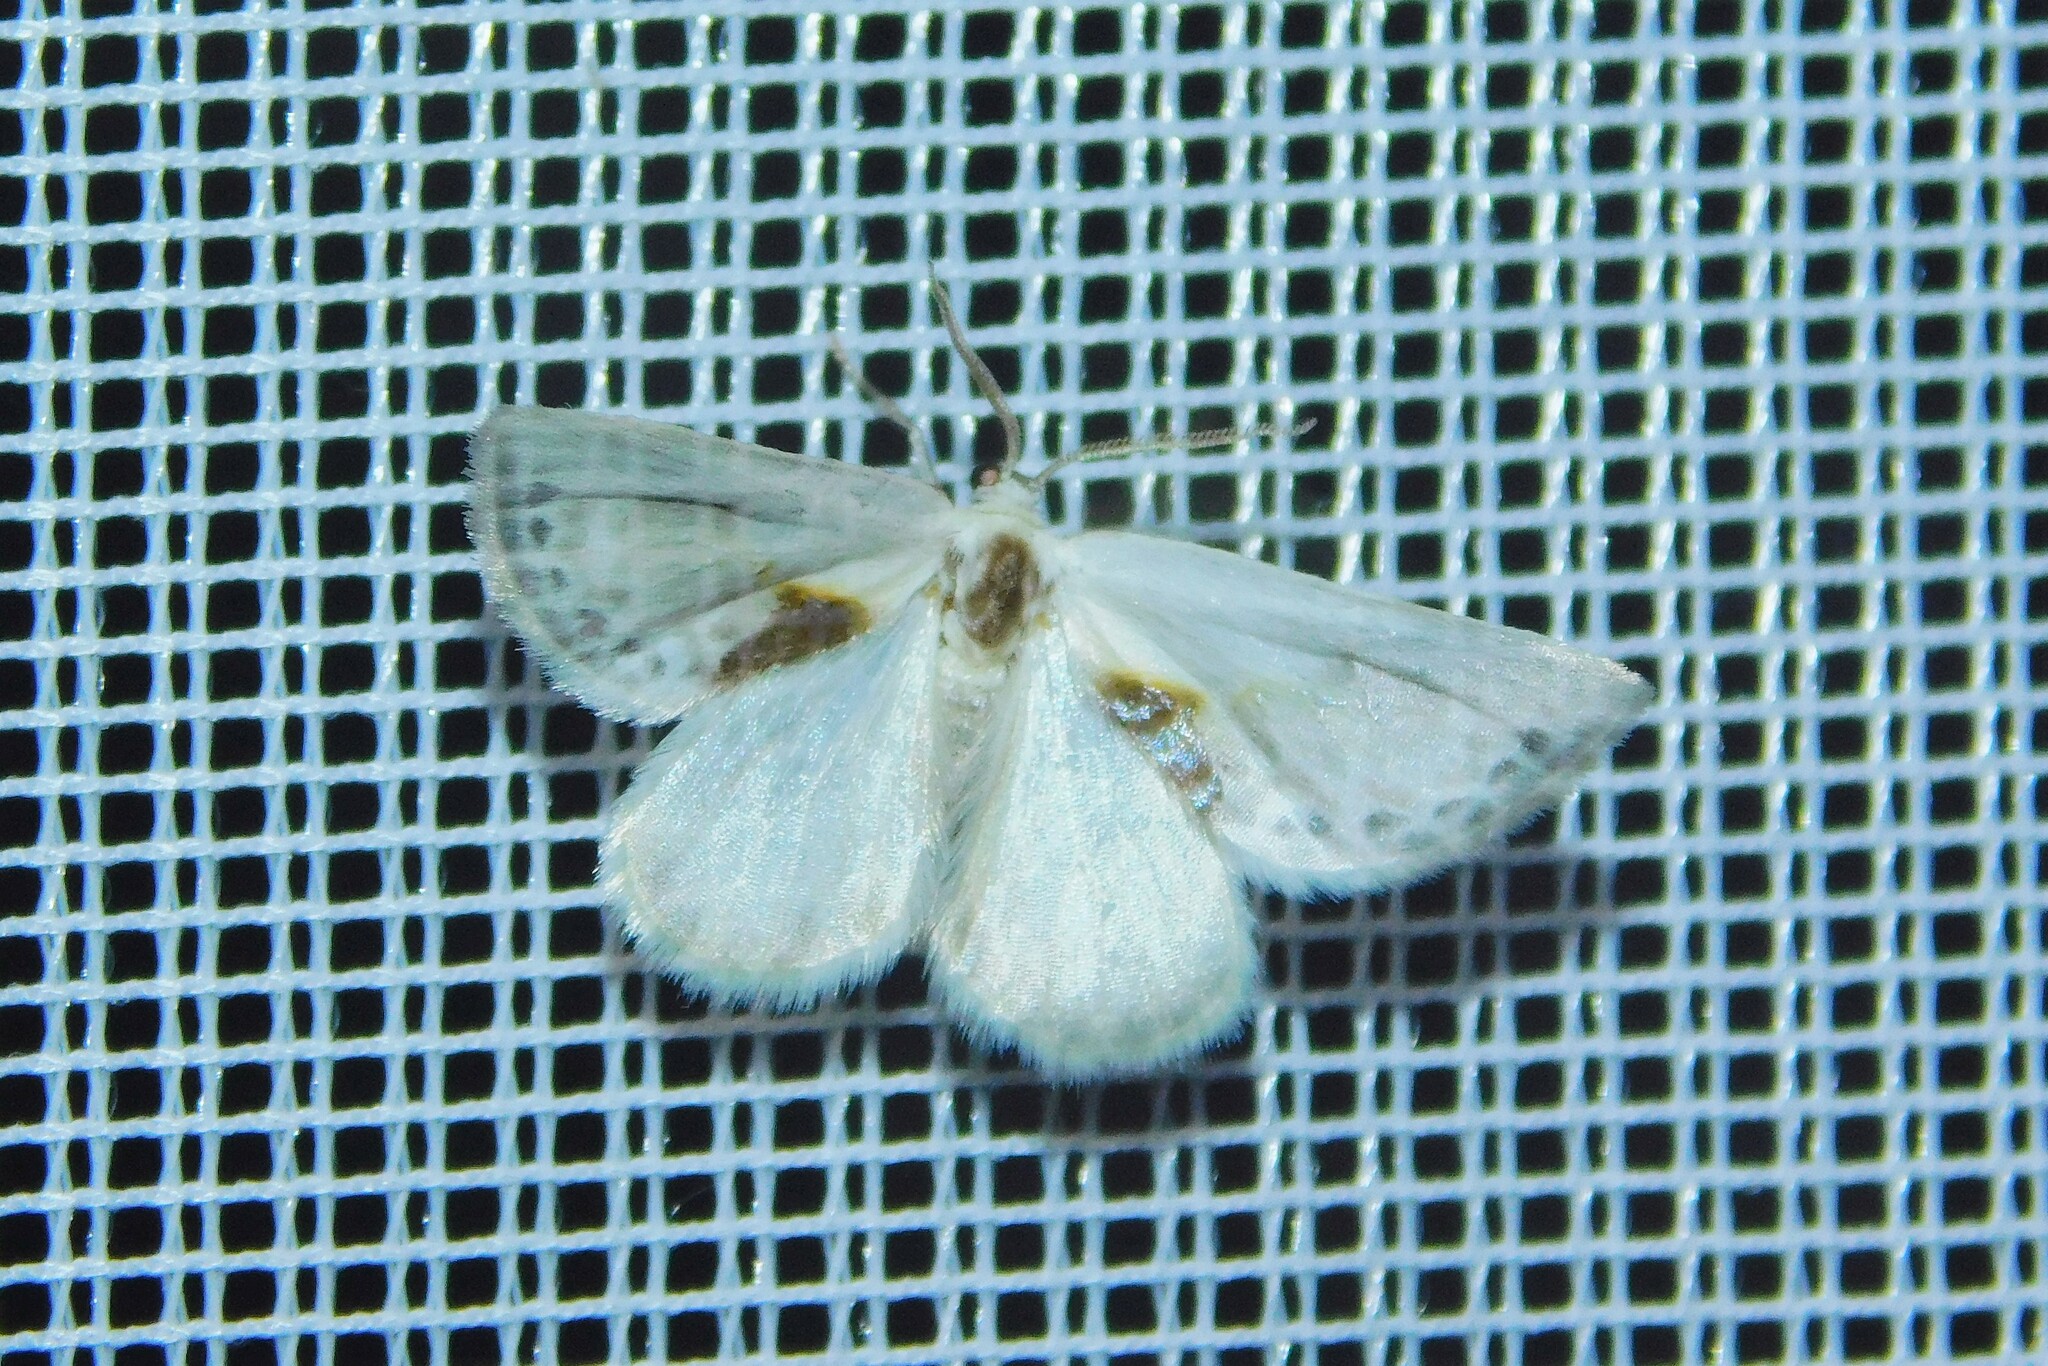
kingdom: Animalia
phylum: Arthropoda
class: Insecta
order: Lepidoptera
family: Drepanidae
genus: Cilix
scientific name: Cilix glaucata
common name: Chinese character
